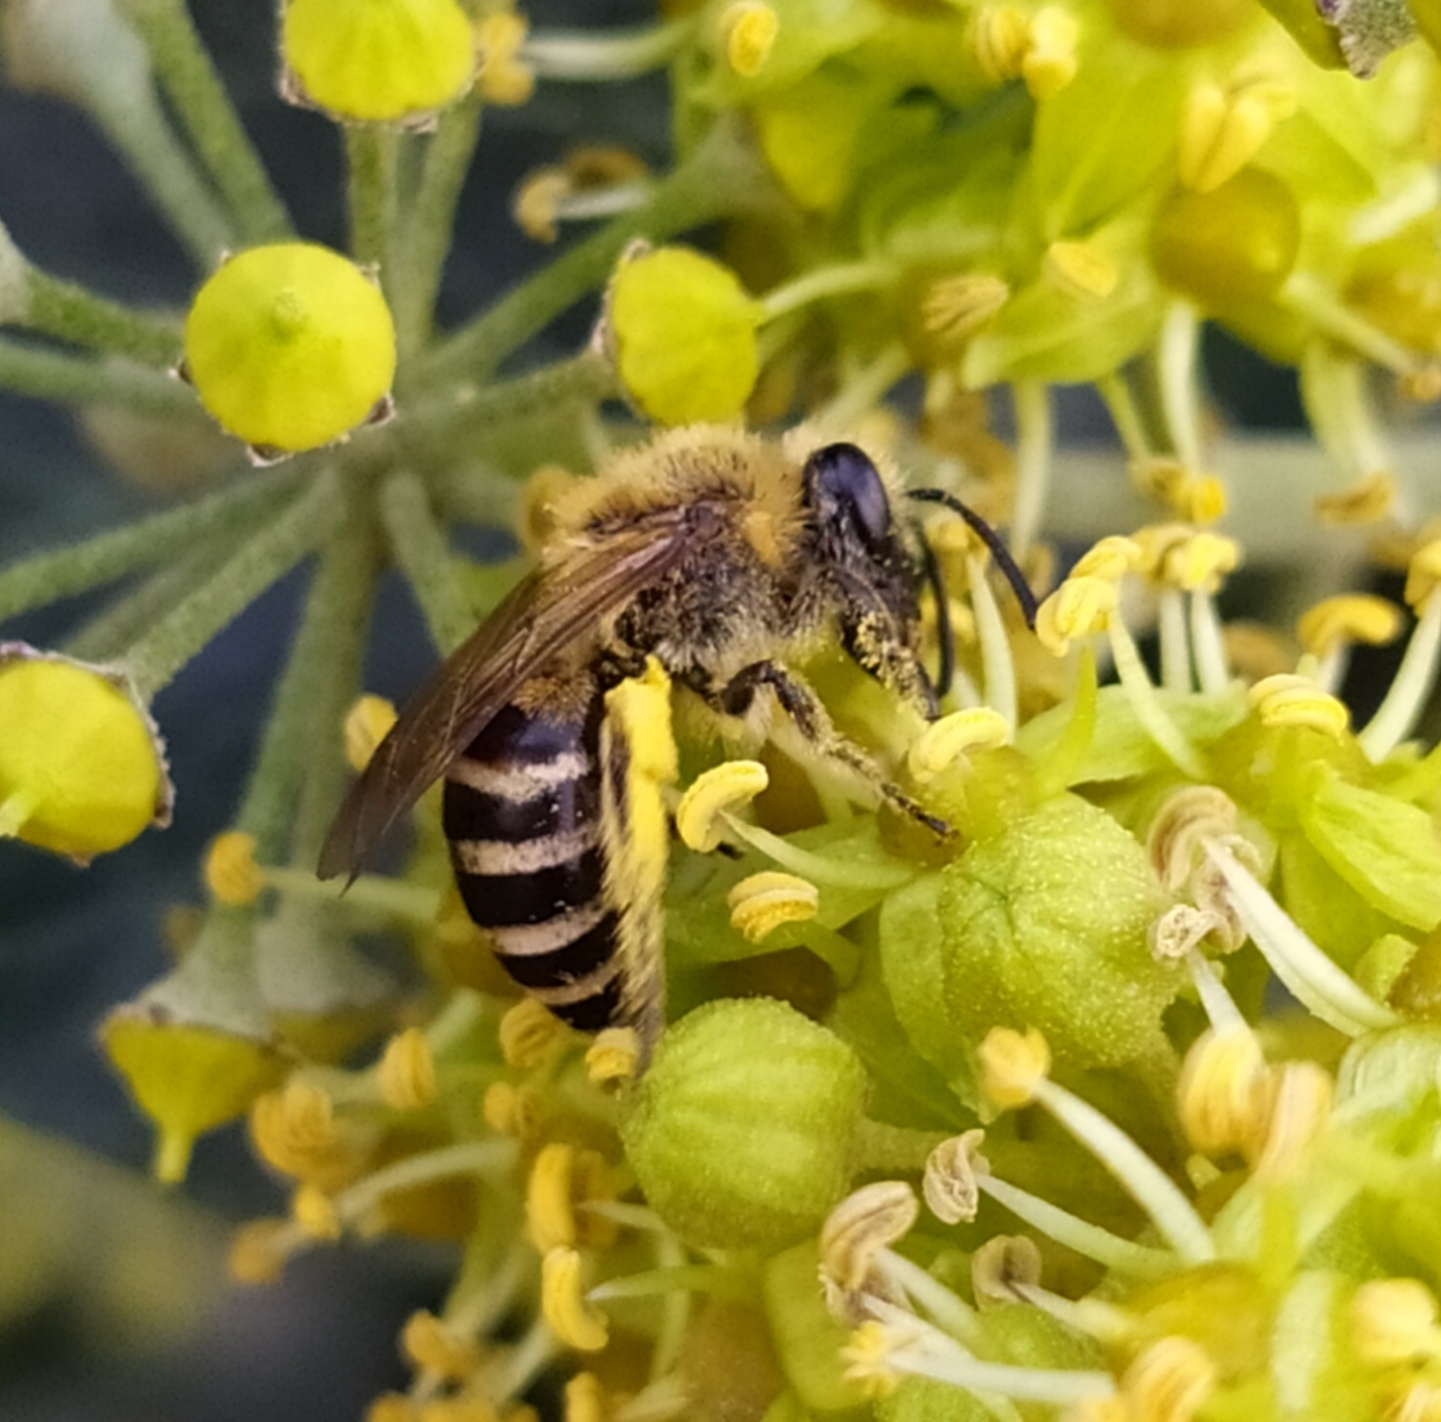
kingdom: Animalia
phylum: Arthropoda
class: Insecta
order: Hymenoptera
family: Colletidae
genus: Colletes
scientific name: Colletes hederae
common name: Ivy bee
